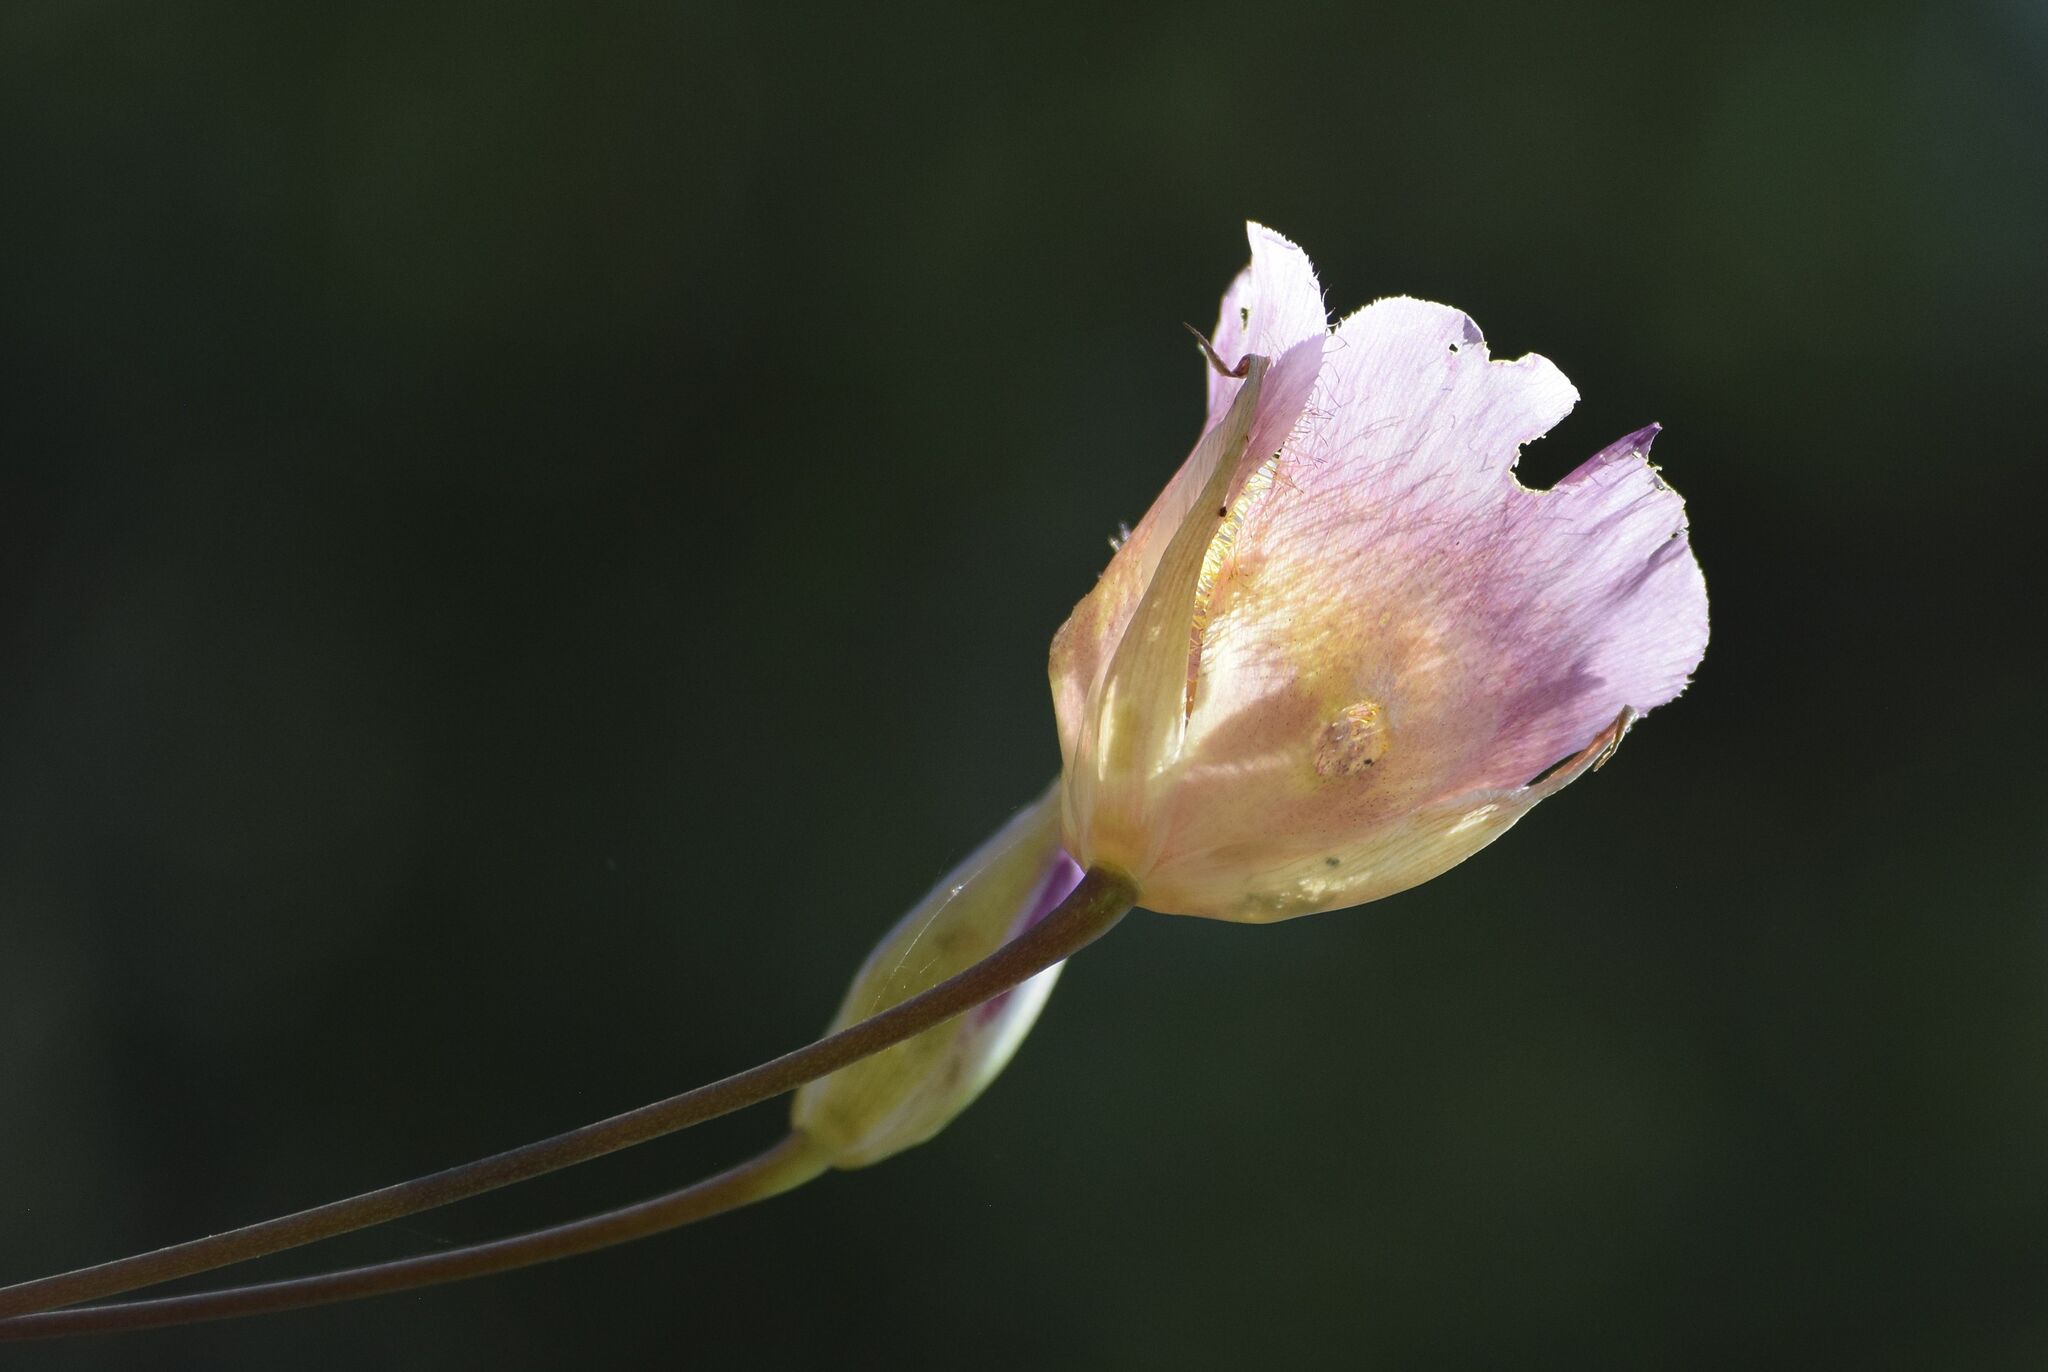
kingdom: Plantae
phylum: Tracheophyta
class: Liliopsida
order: Liliales
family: Liliaceae
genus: Calochortus
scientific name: Calochortus plummerae
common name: Plummer's mariposa-lily
